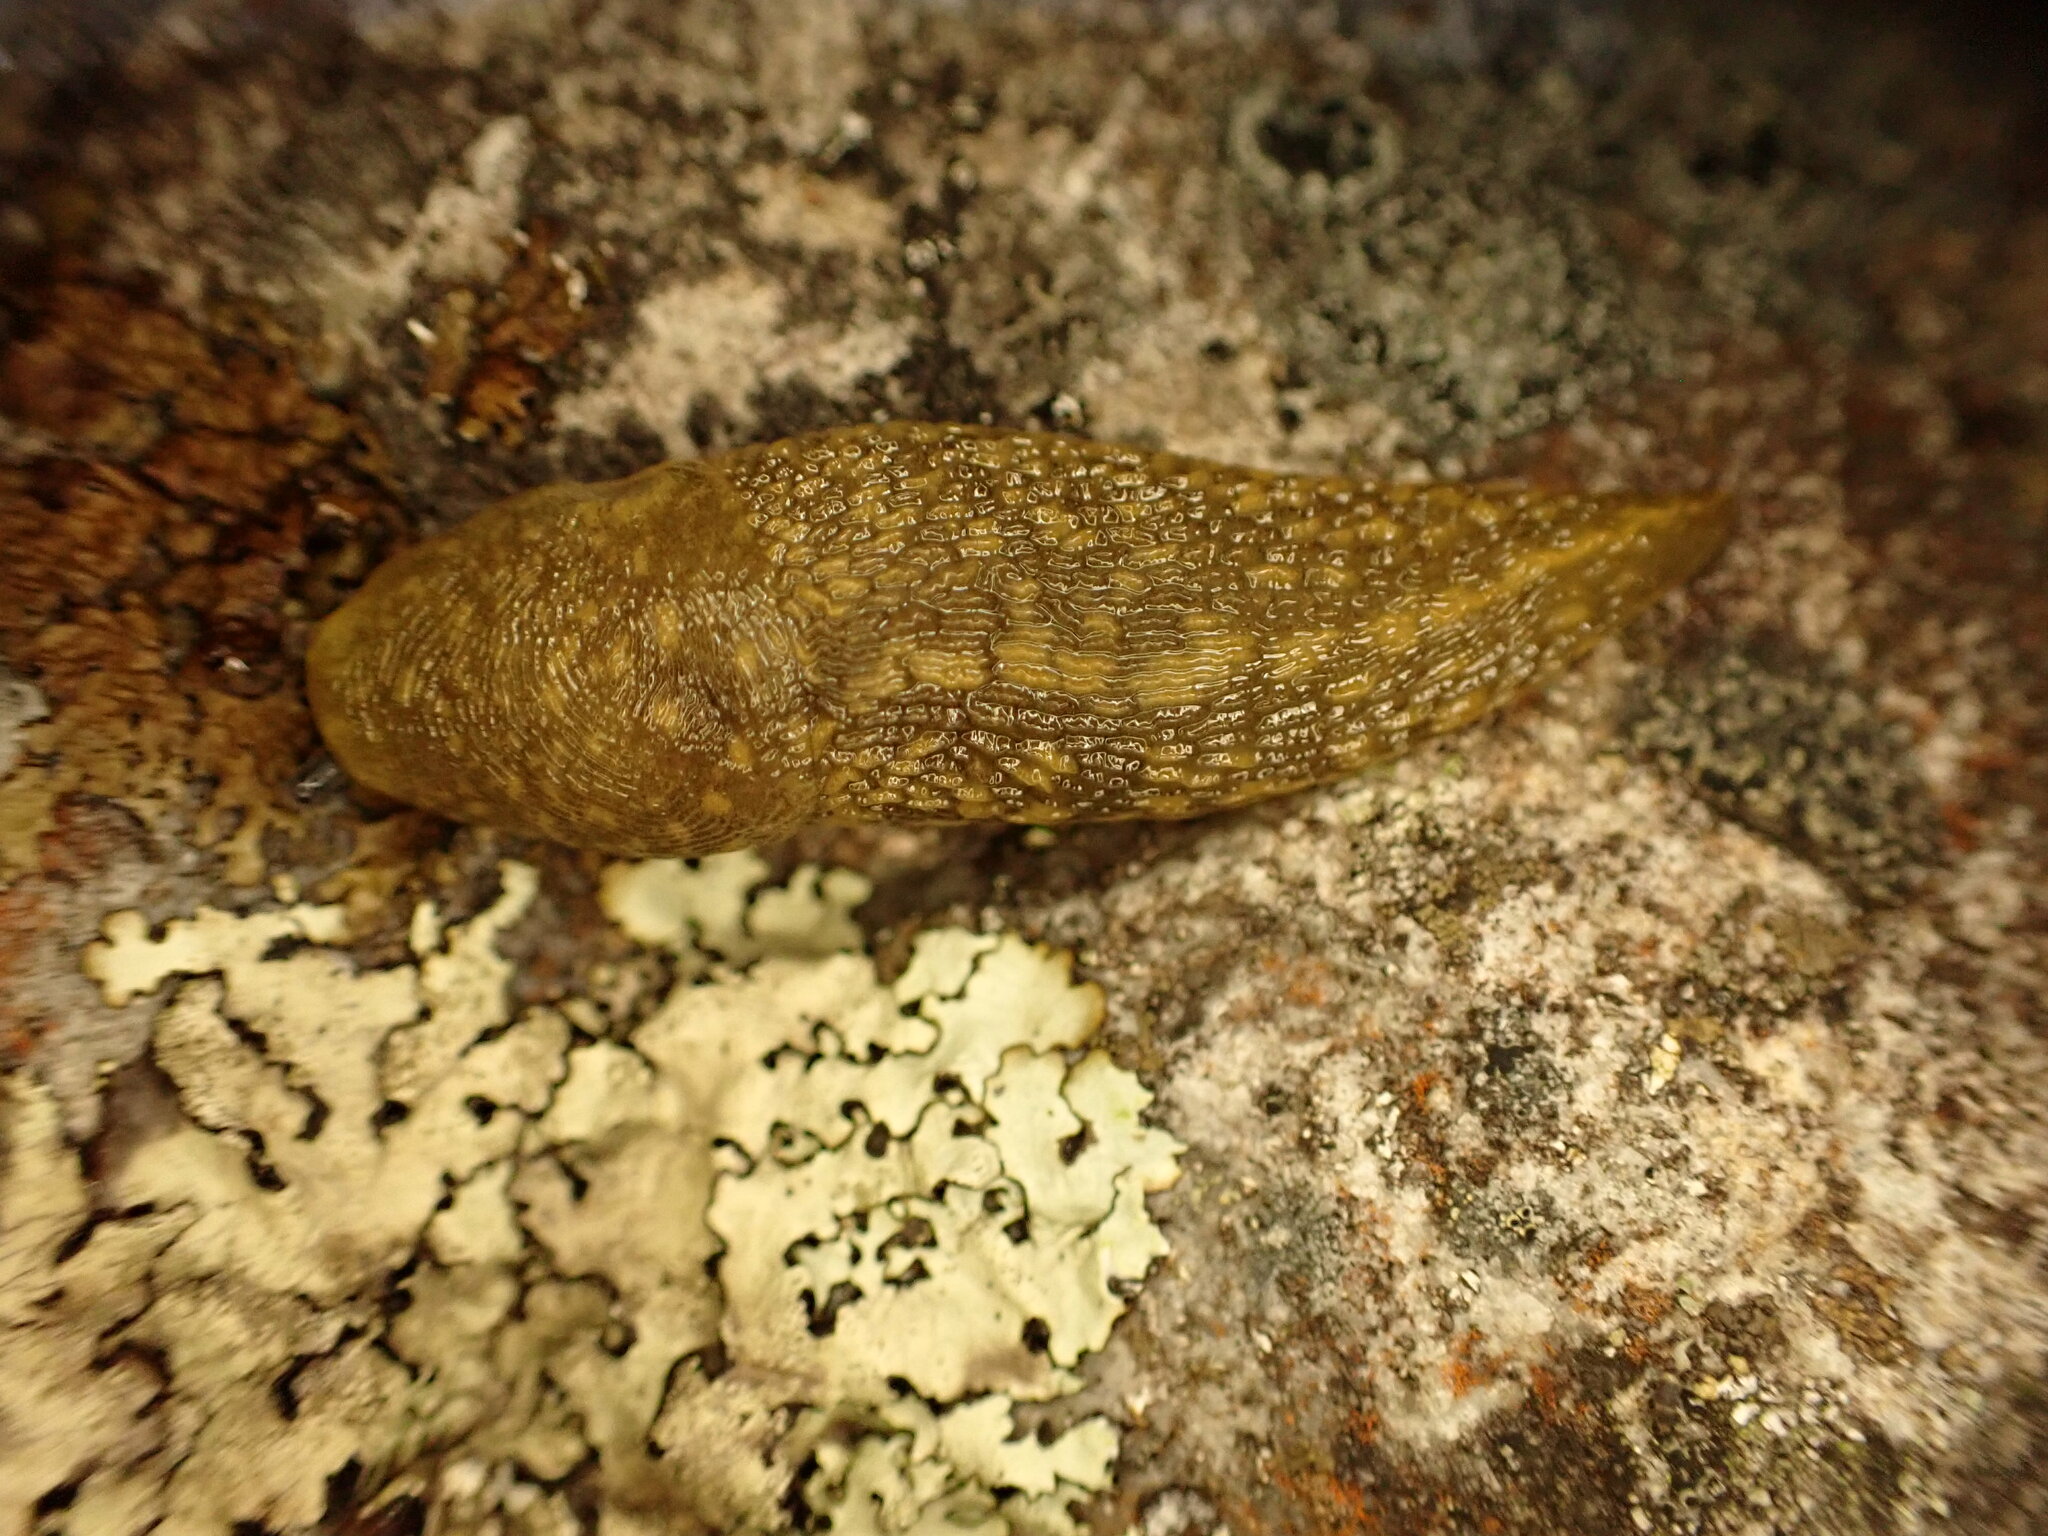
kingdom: Animalia
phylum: Mollusca
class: Gastropoda
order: Stylommatophora
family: Limacidae
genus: Limacus
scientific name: Limacus flavus
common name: Yellow gardenslug
